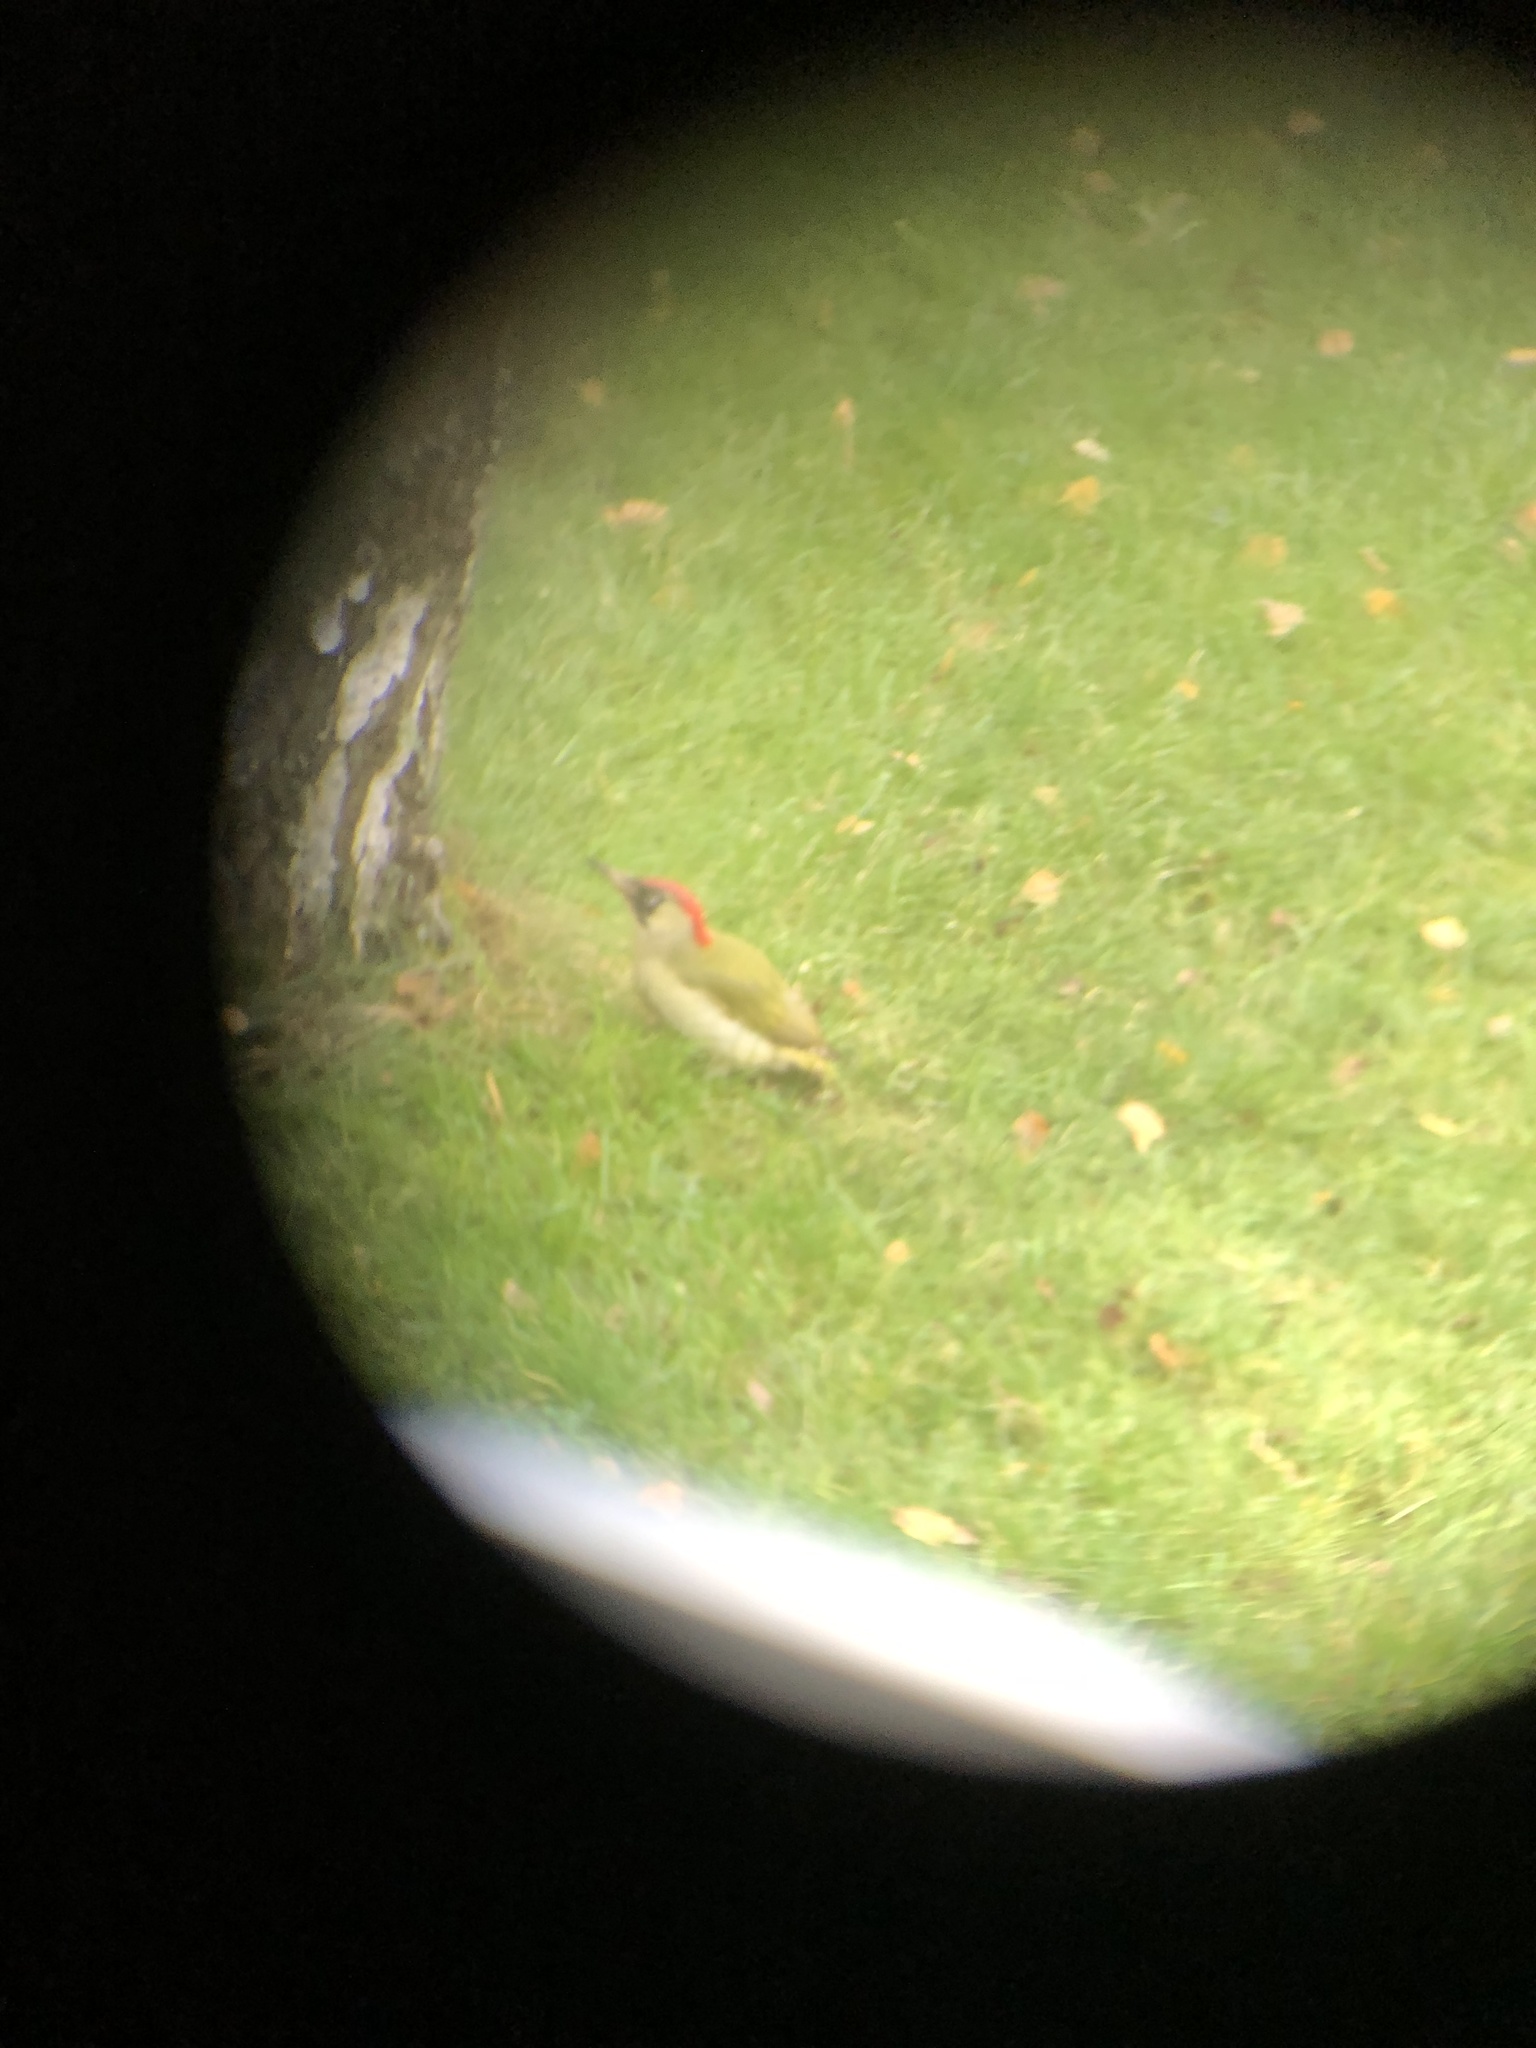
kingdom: Animalia
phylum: Chordata
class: Aves
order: Piciformes
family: Picidae
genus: Picus
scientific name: Picus viridis
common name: European green woodpecker
